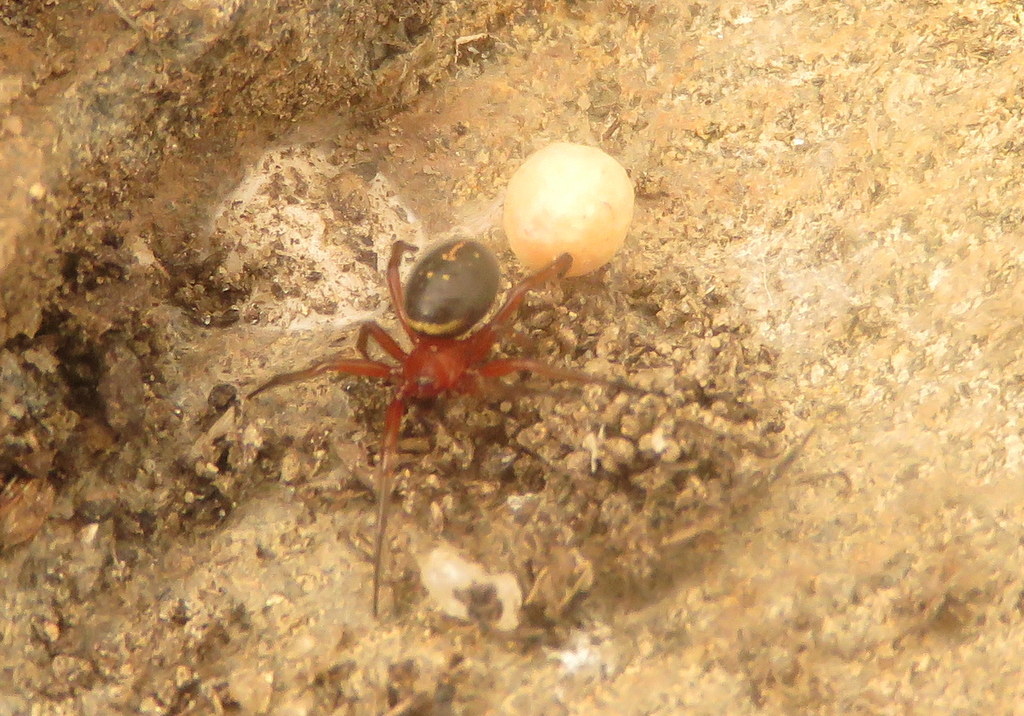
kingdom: Animalia
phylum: Arthropoda
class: Arachnida
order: Araneae
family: Theridiidae
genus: Steatoda
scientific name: Steatoda ancorata
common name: Cobweb spiders
